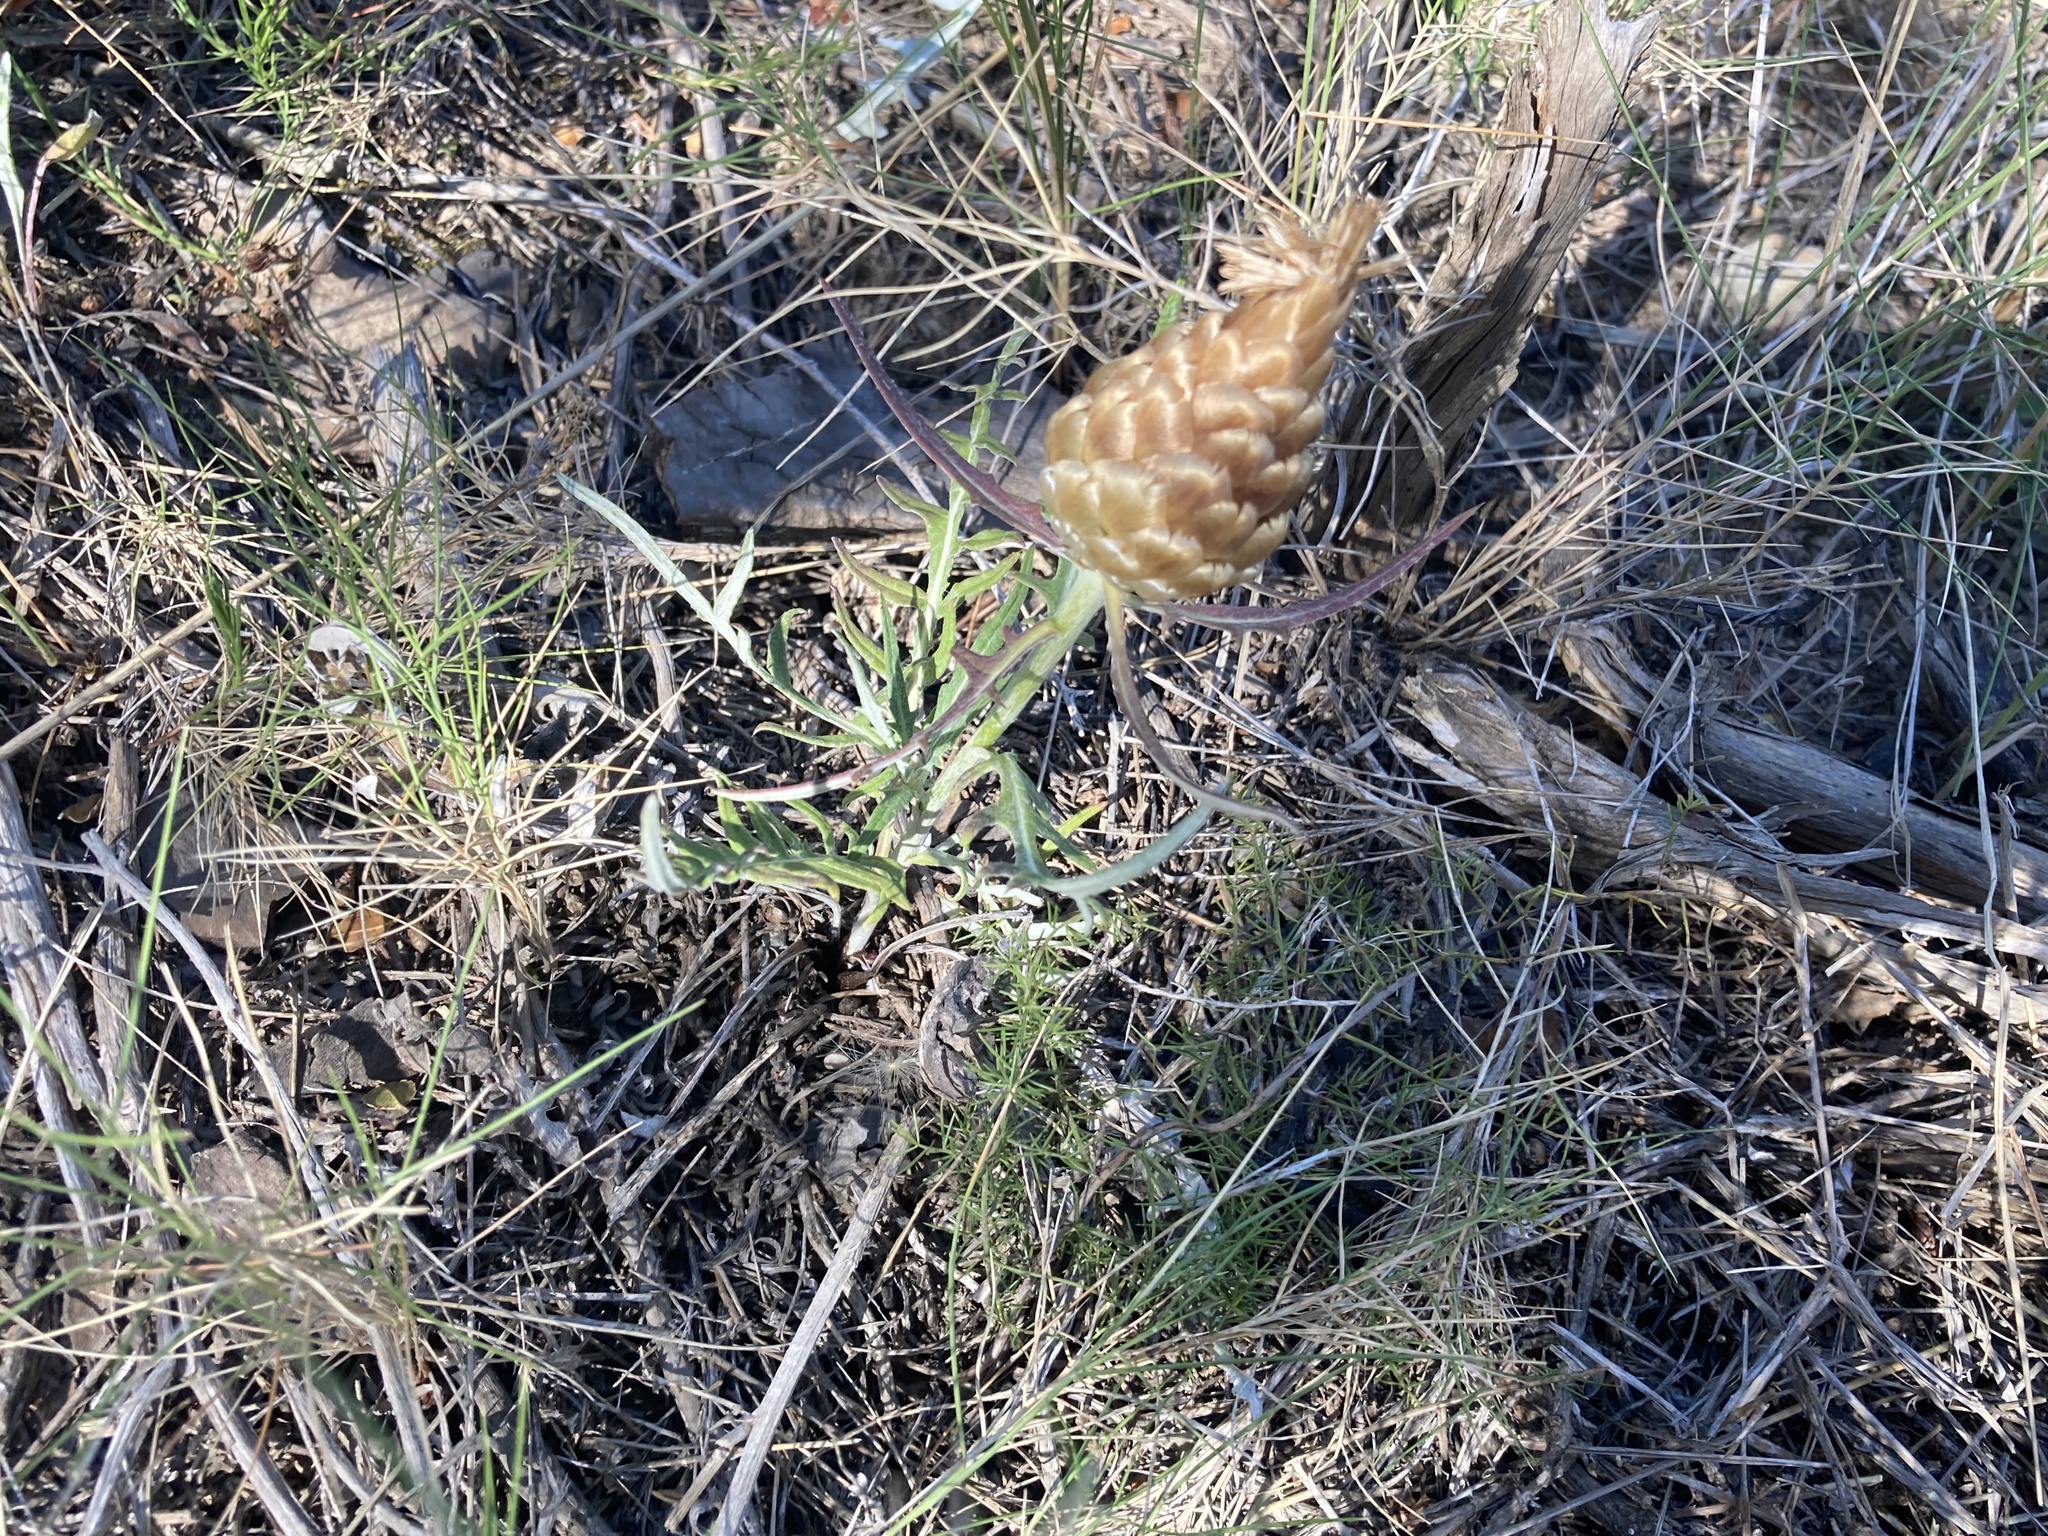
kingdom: Plantae
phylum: Tracheophyta
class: Magnoliopsida
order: Asterales
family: Asteraceae
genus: Leuzea
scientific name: Leuzea conifera
